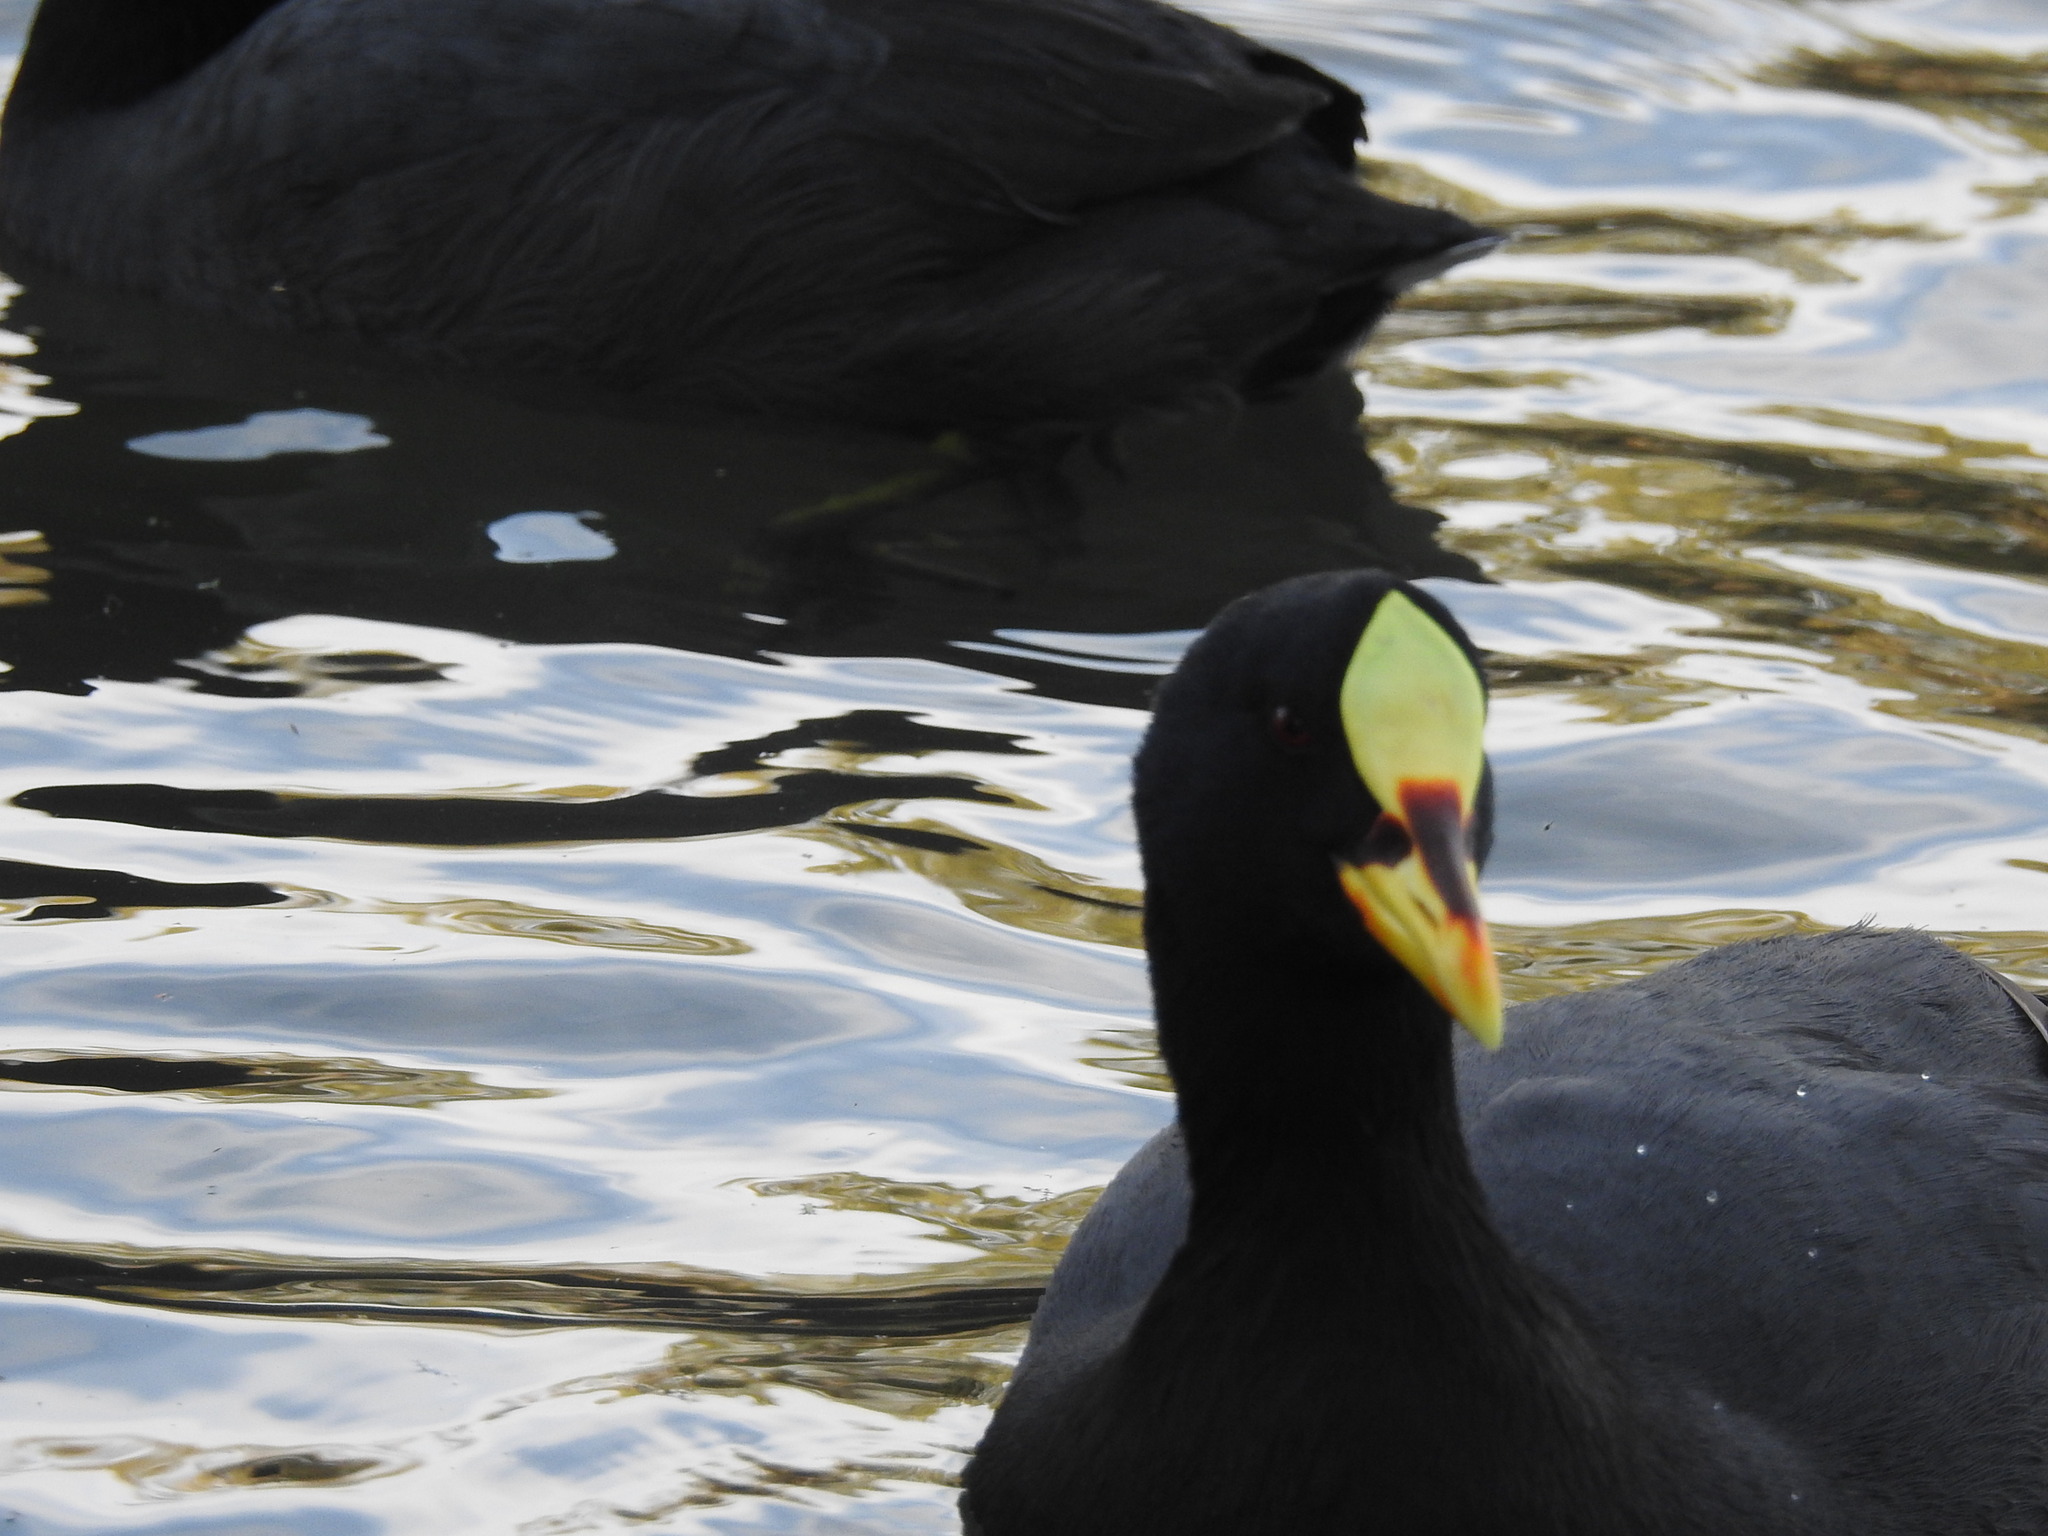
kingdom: Animalia
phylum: Chordata
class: Aves
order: Gruiformes
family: Rallidae
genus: Fulica
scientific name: Fulica armillata
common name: Red-gartered coot
